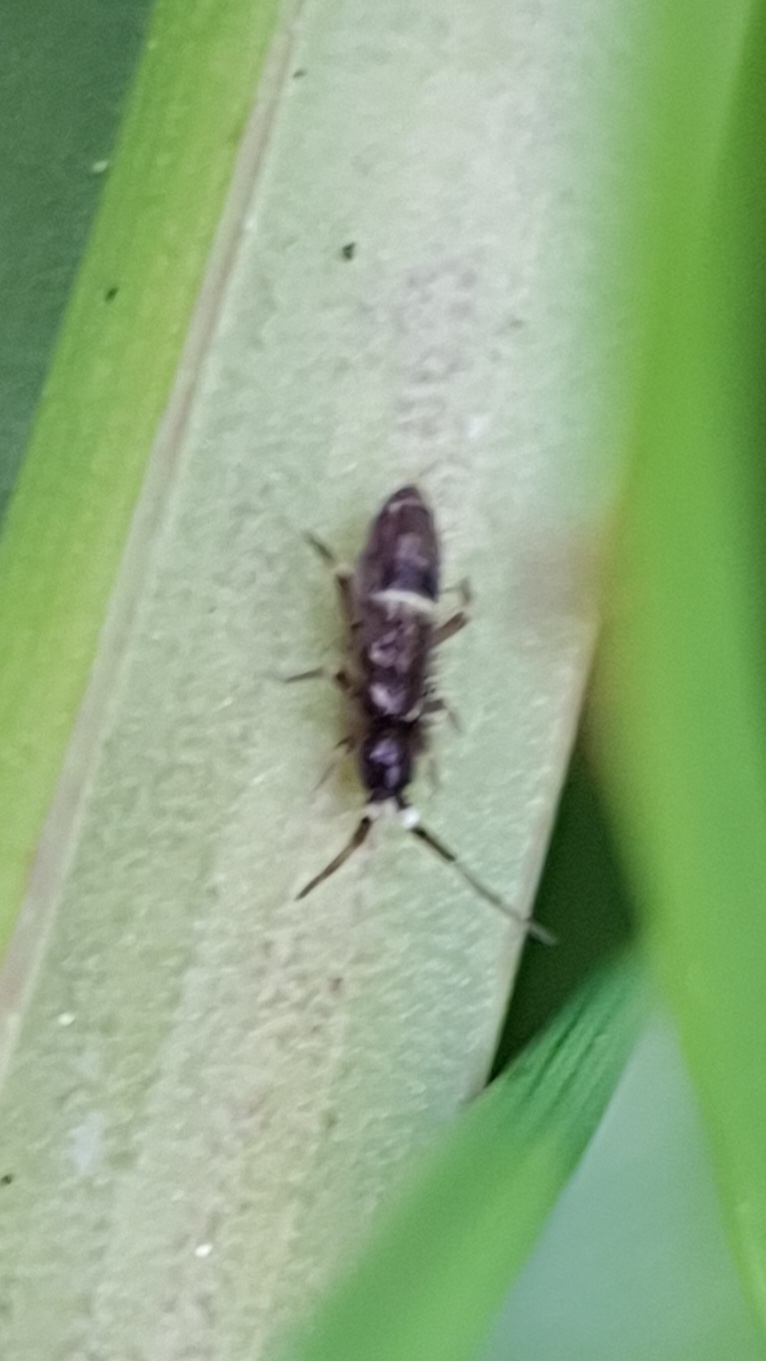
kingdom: Animalia
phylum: Arthropoda
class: Collembola
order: Entomobryomorpha
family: Orchesellidae
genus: Orchesella
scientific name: Orchesella cincta
